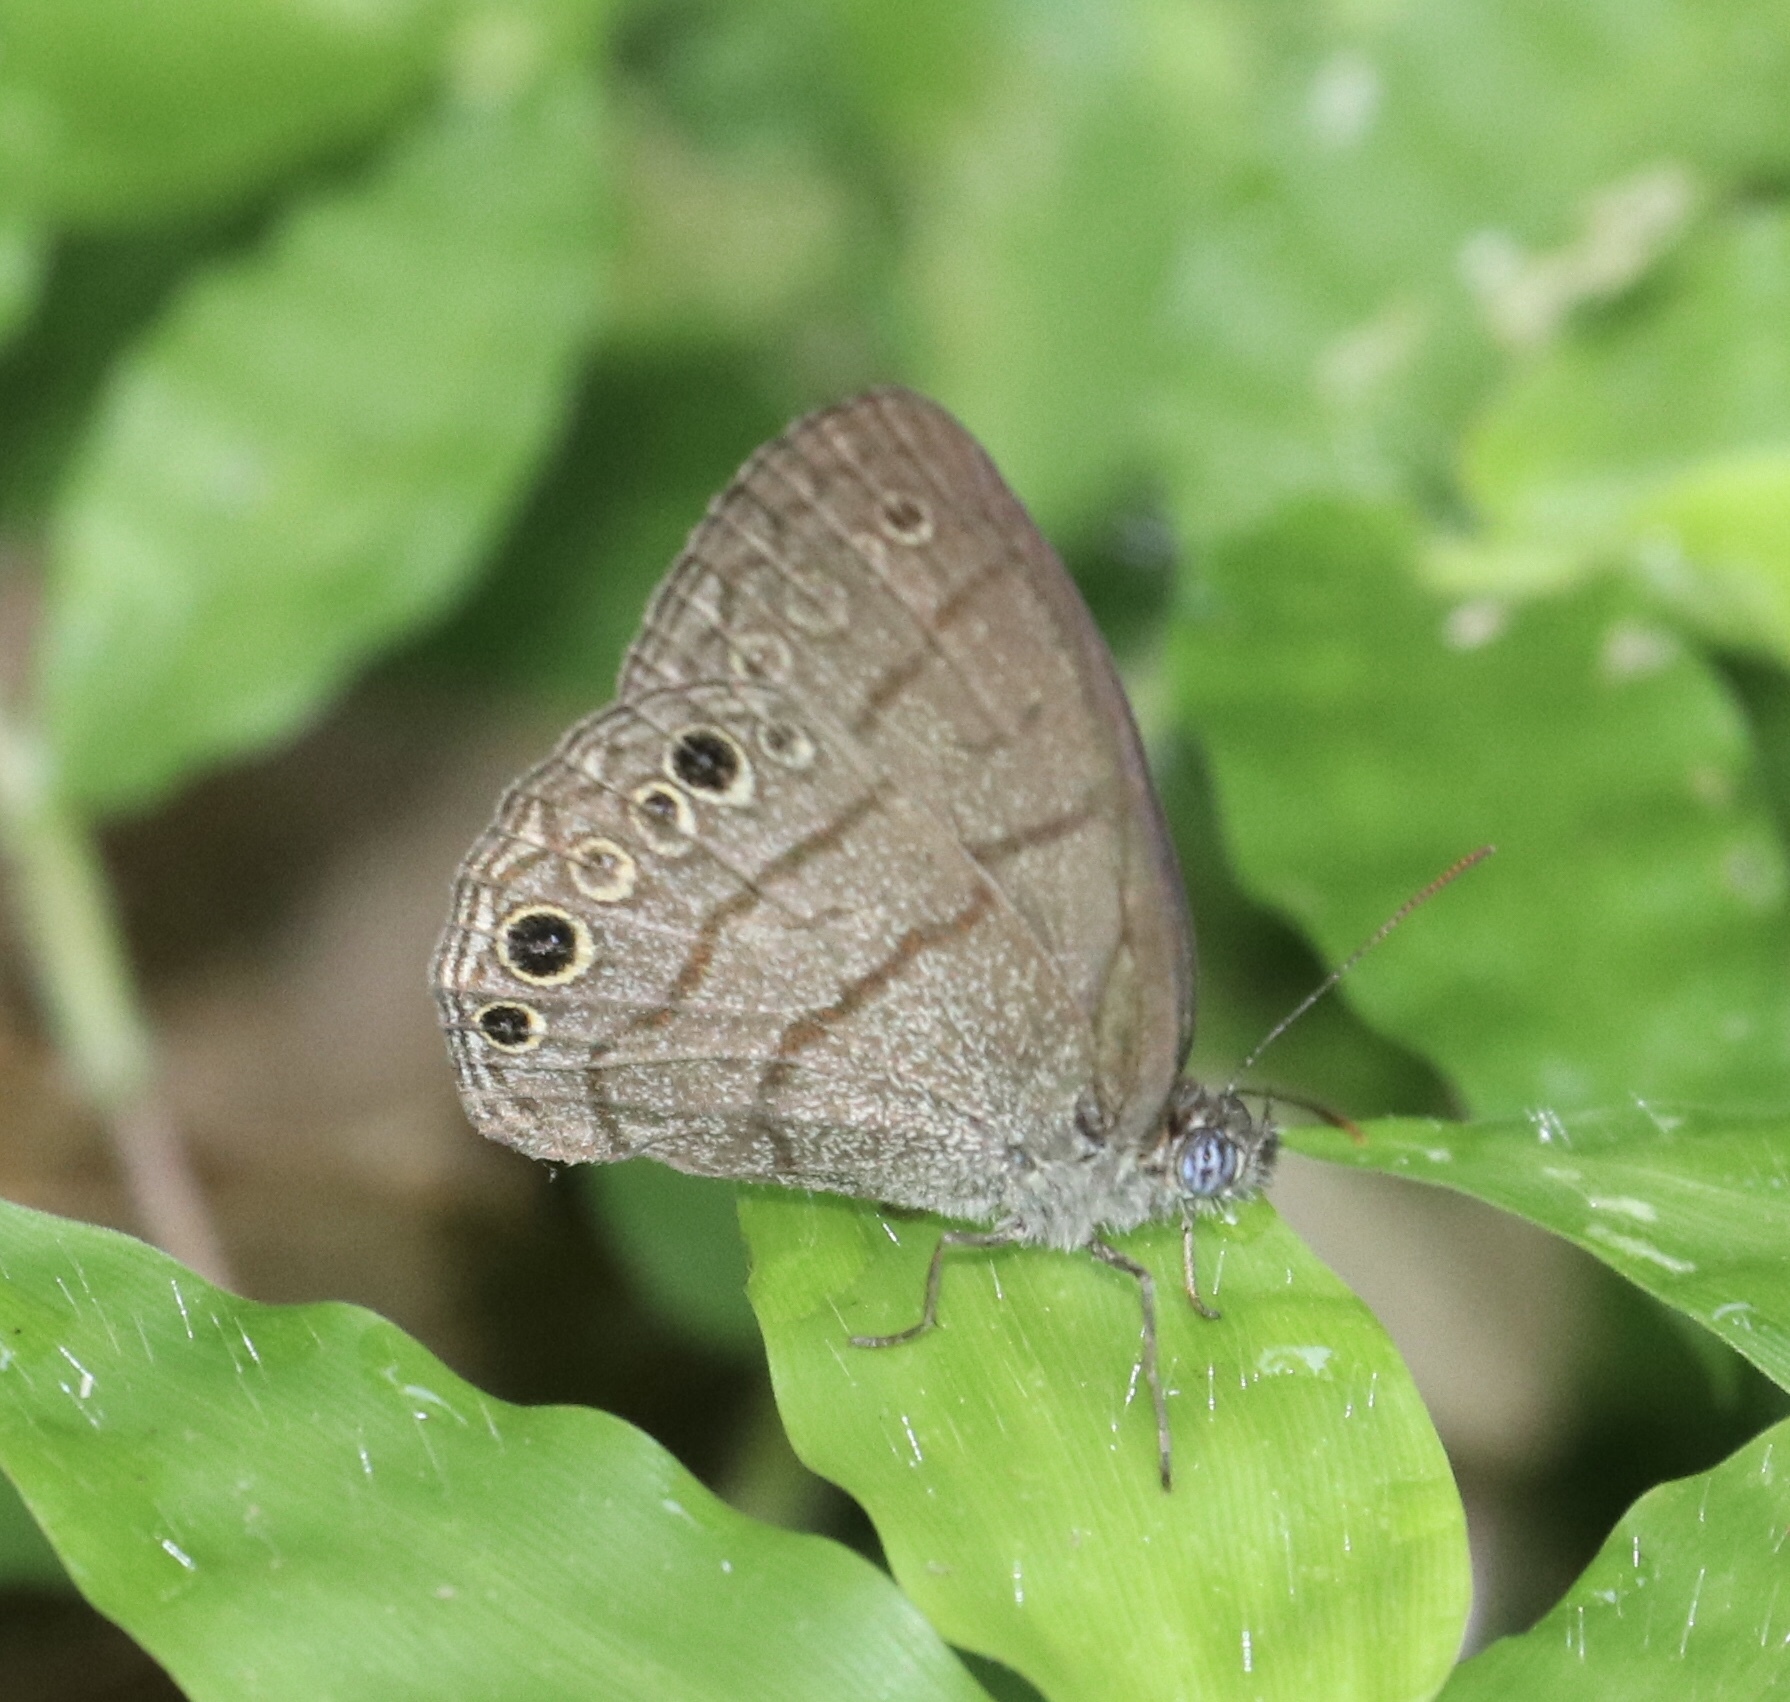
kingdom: Animalia
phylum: Arthropoda
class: Insecta
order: Lepidoptera
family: Nymphalidae
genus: Hermeuptychia
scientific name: Hermeuptychia hermes
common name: Hermes satyr
